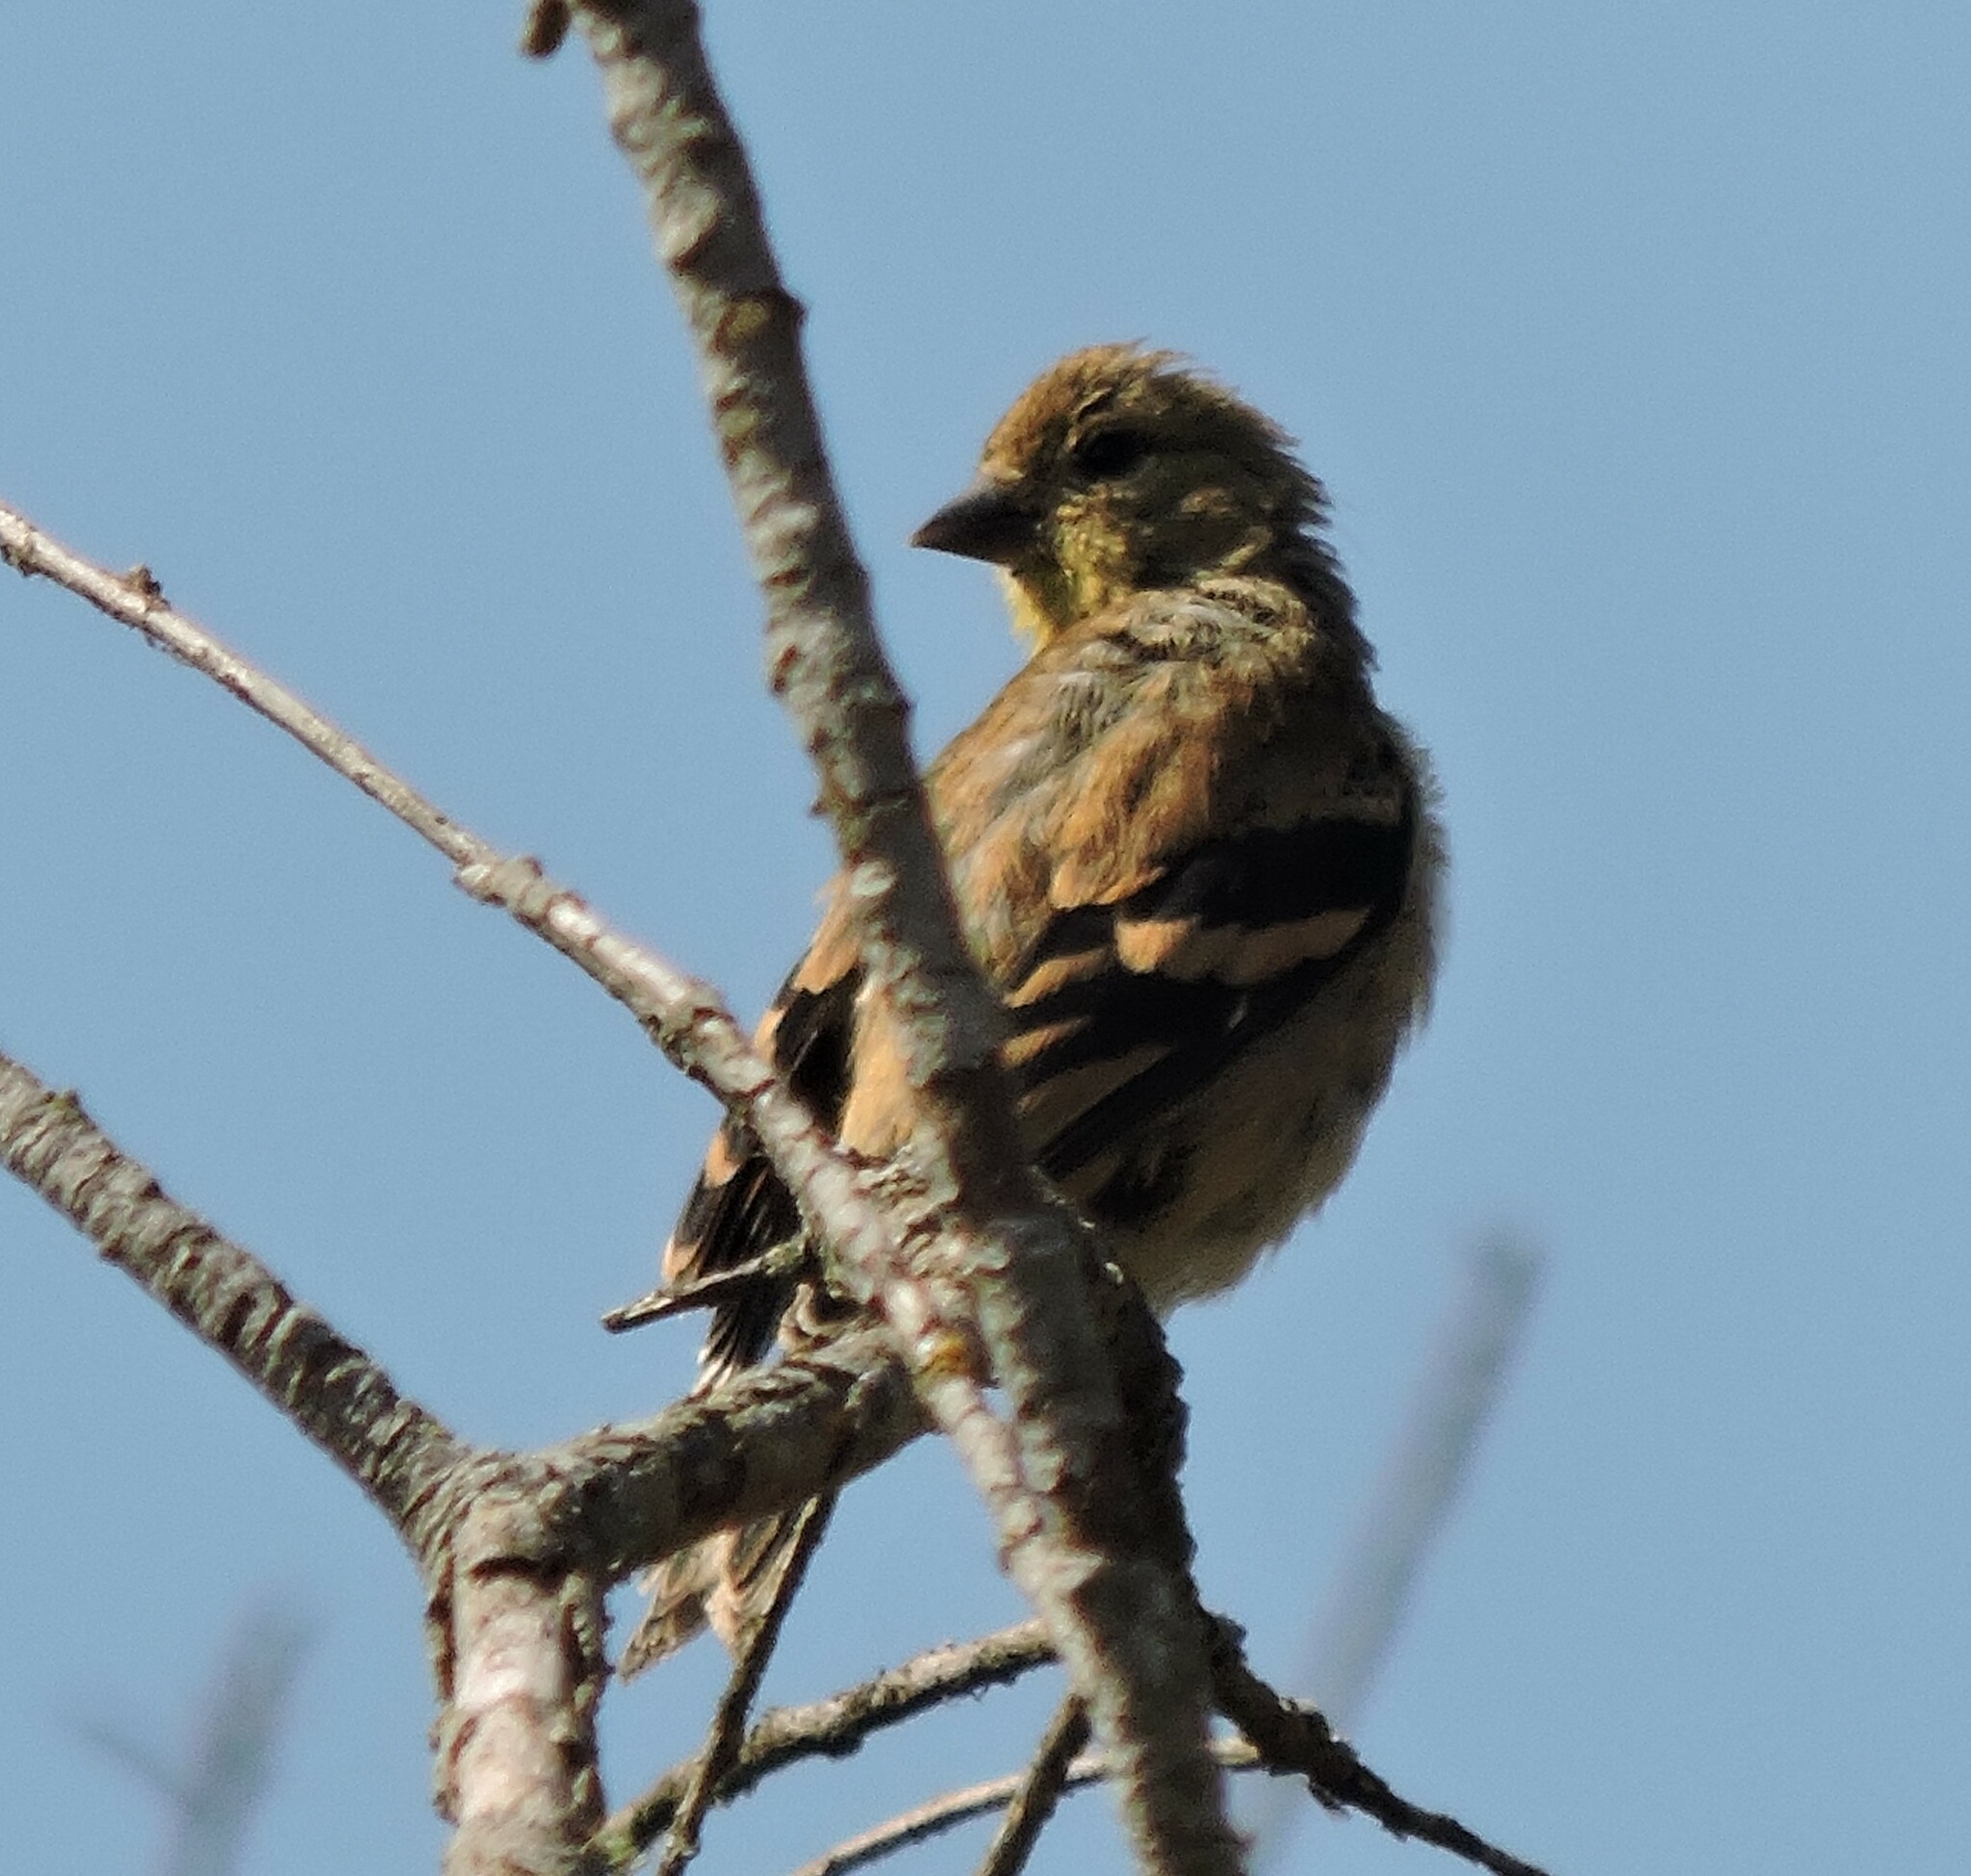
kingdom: Animalia
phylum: Chordata
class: Aves
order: Passeriformes
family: Fringillidae
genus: Spinus
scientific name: Spinus tristis
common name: American goldfinch
